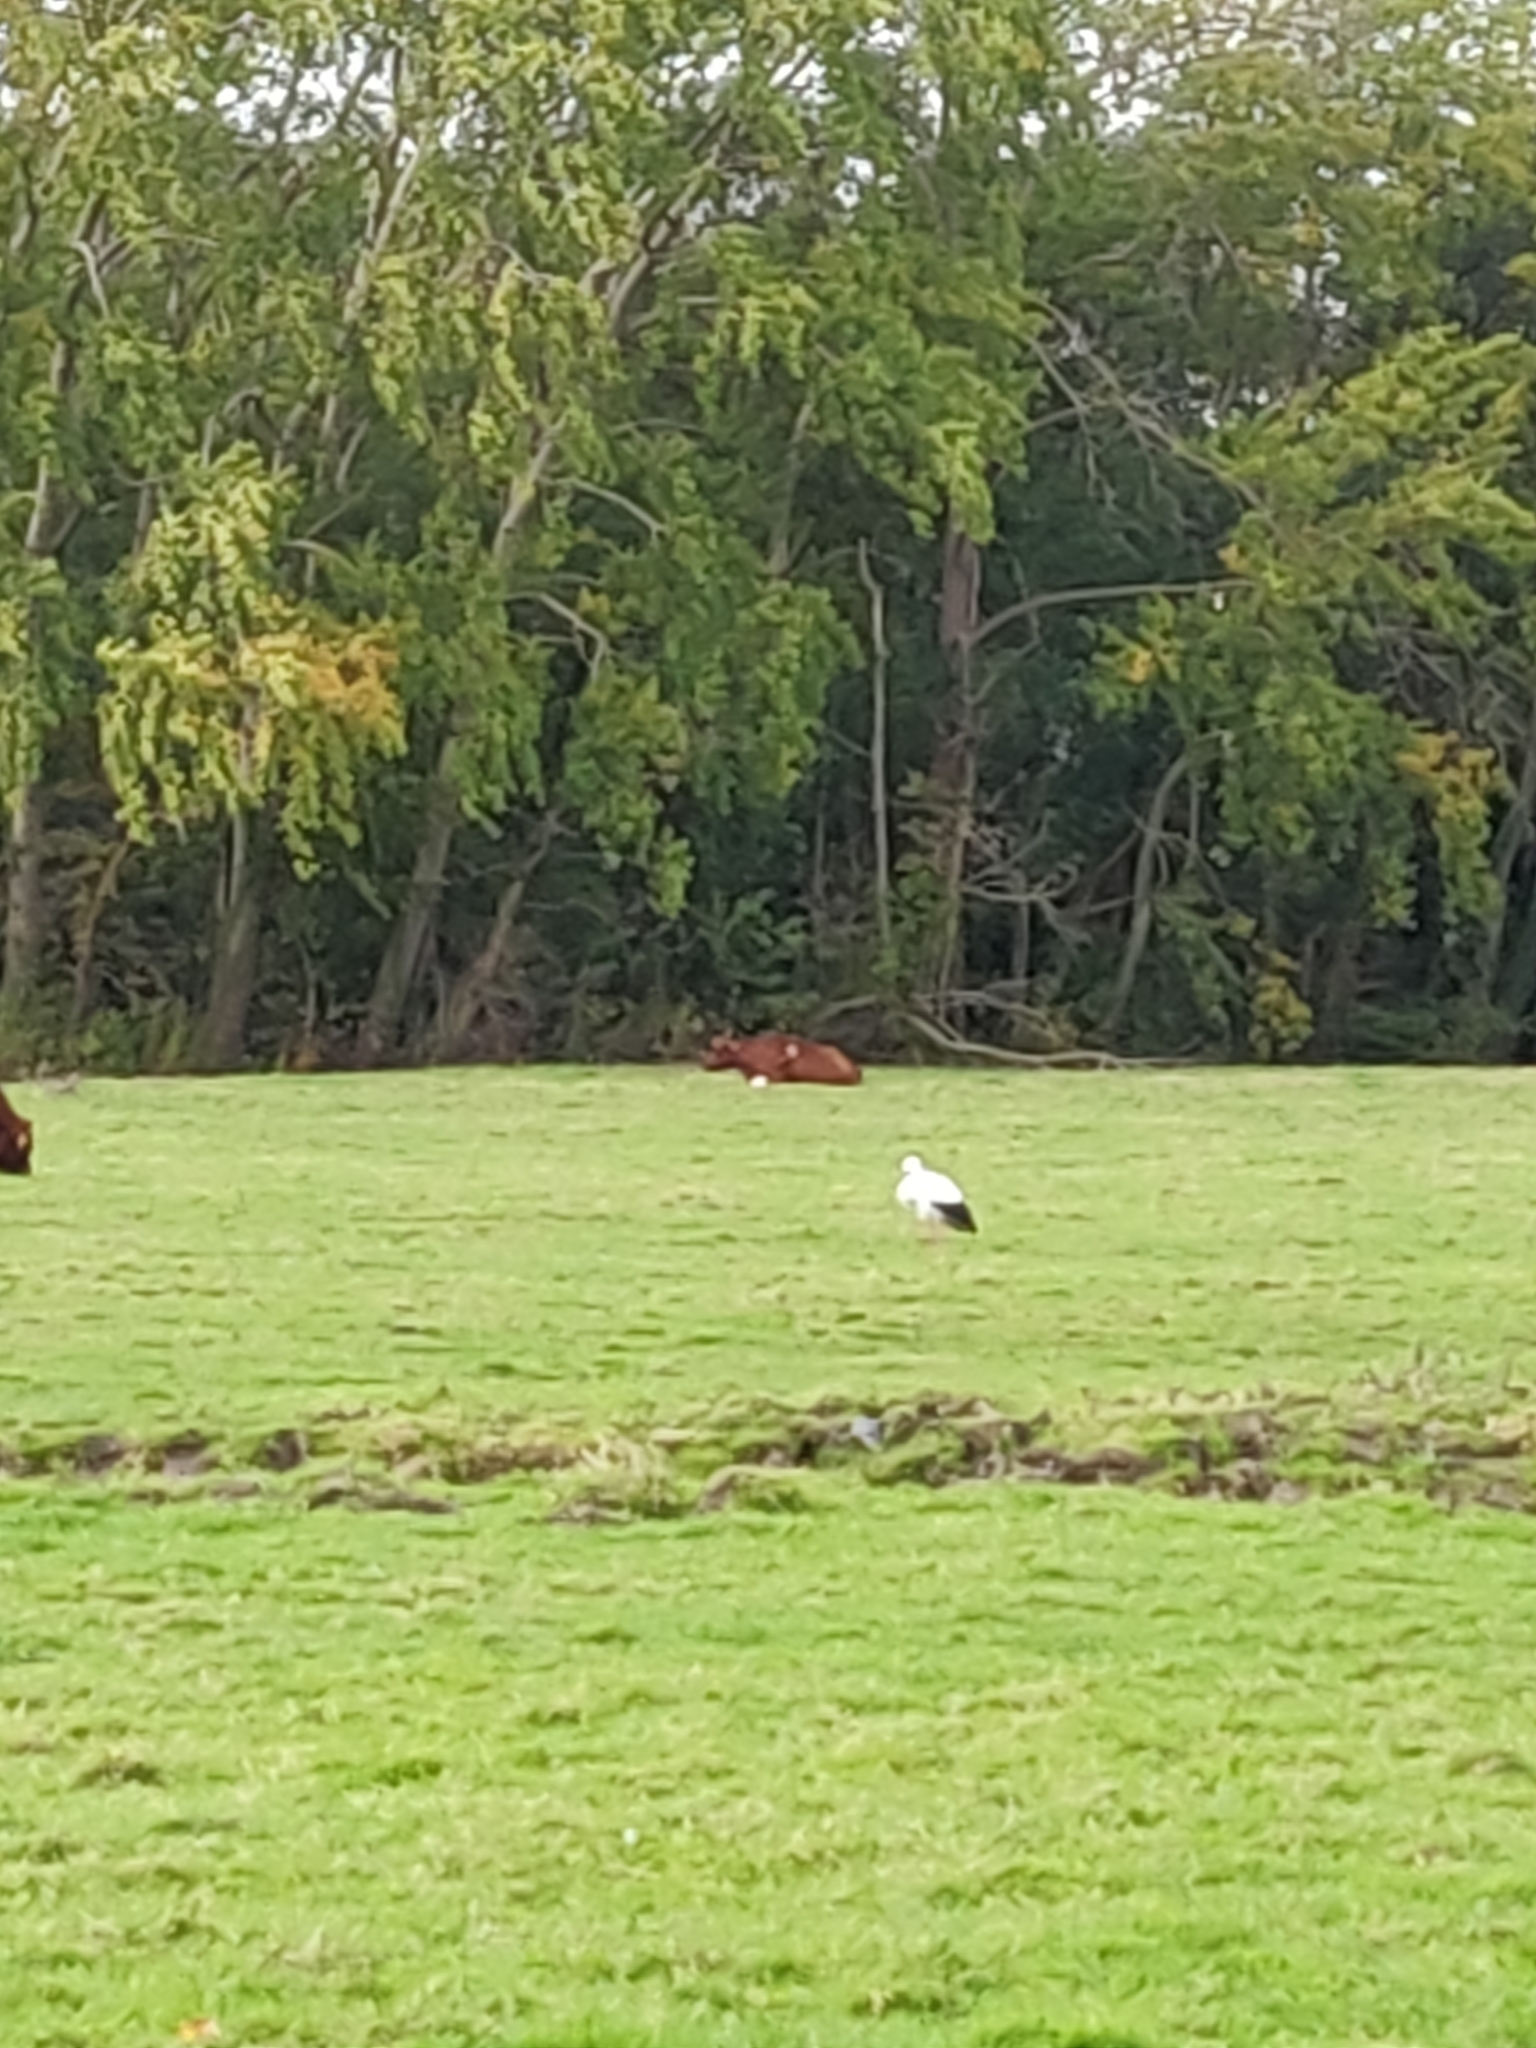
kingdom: Animalia
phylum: Chordata
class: Aves
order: Ciconiiformes
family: Ciconiidae
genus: Ciconia
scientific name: Ciconia ciconia
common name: White stork
